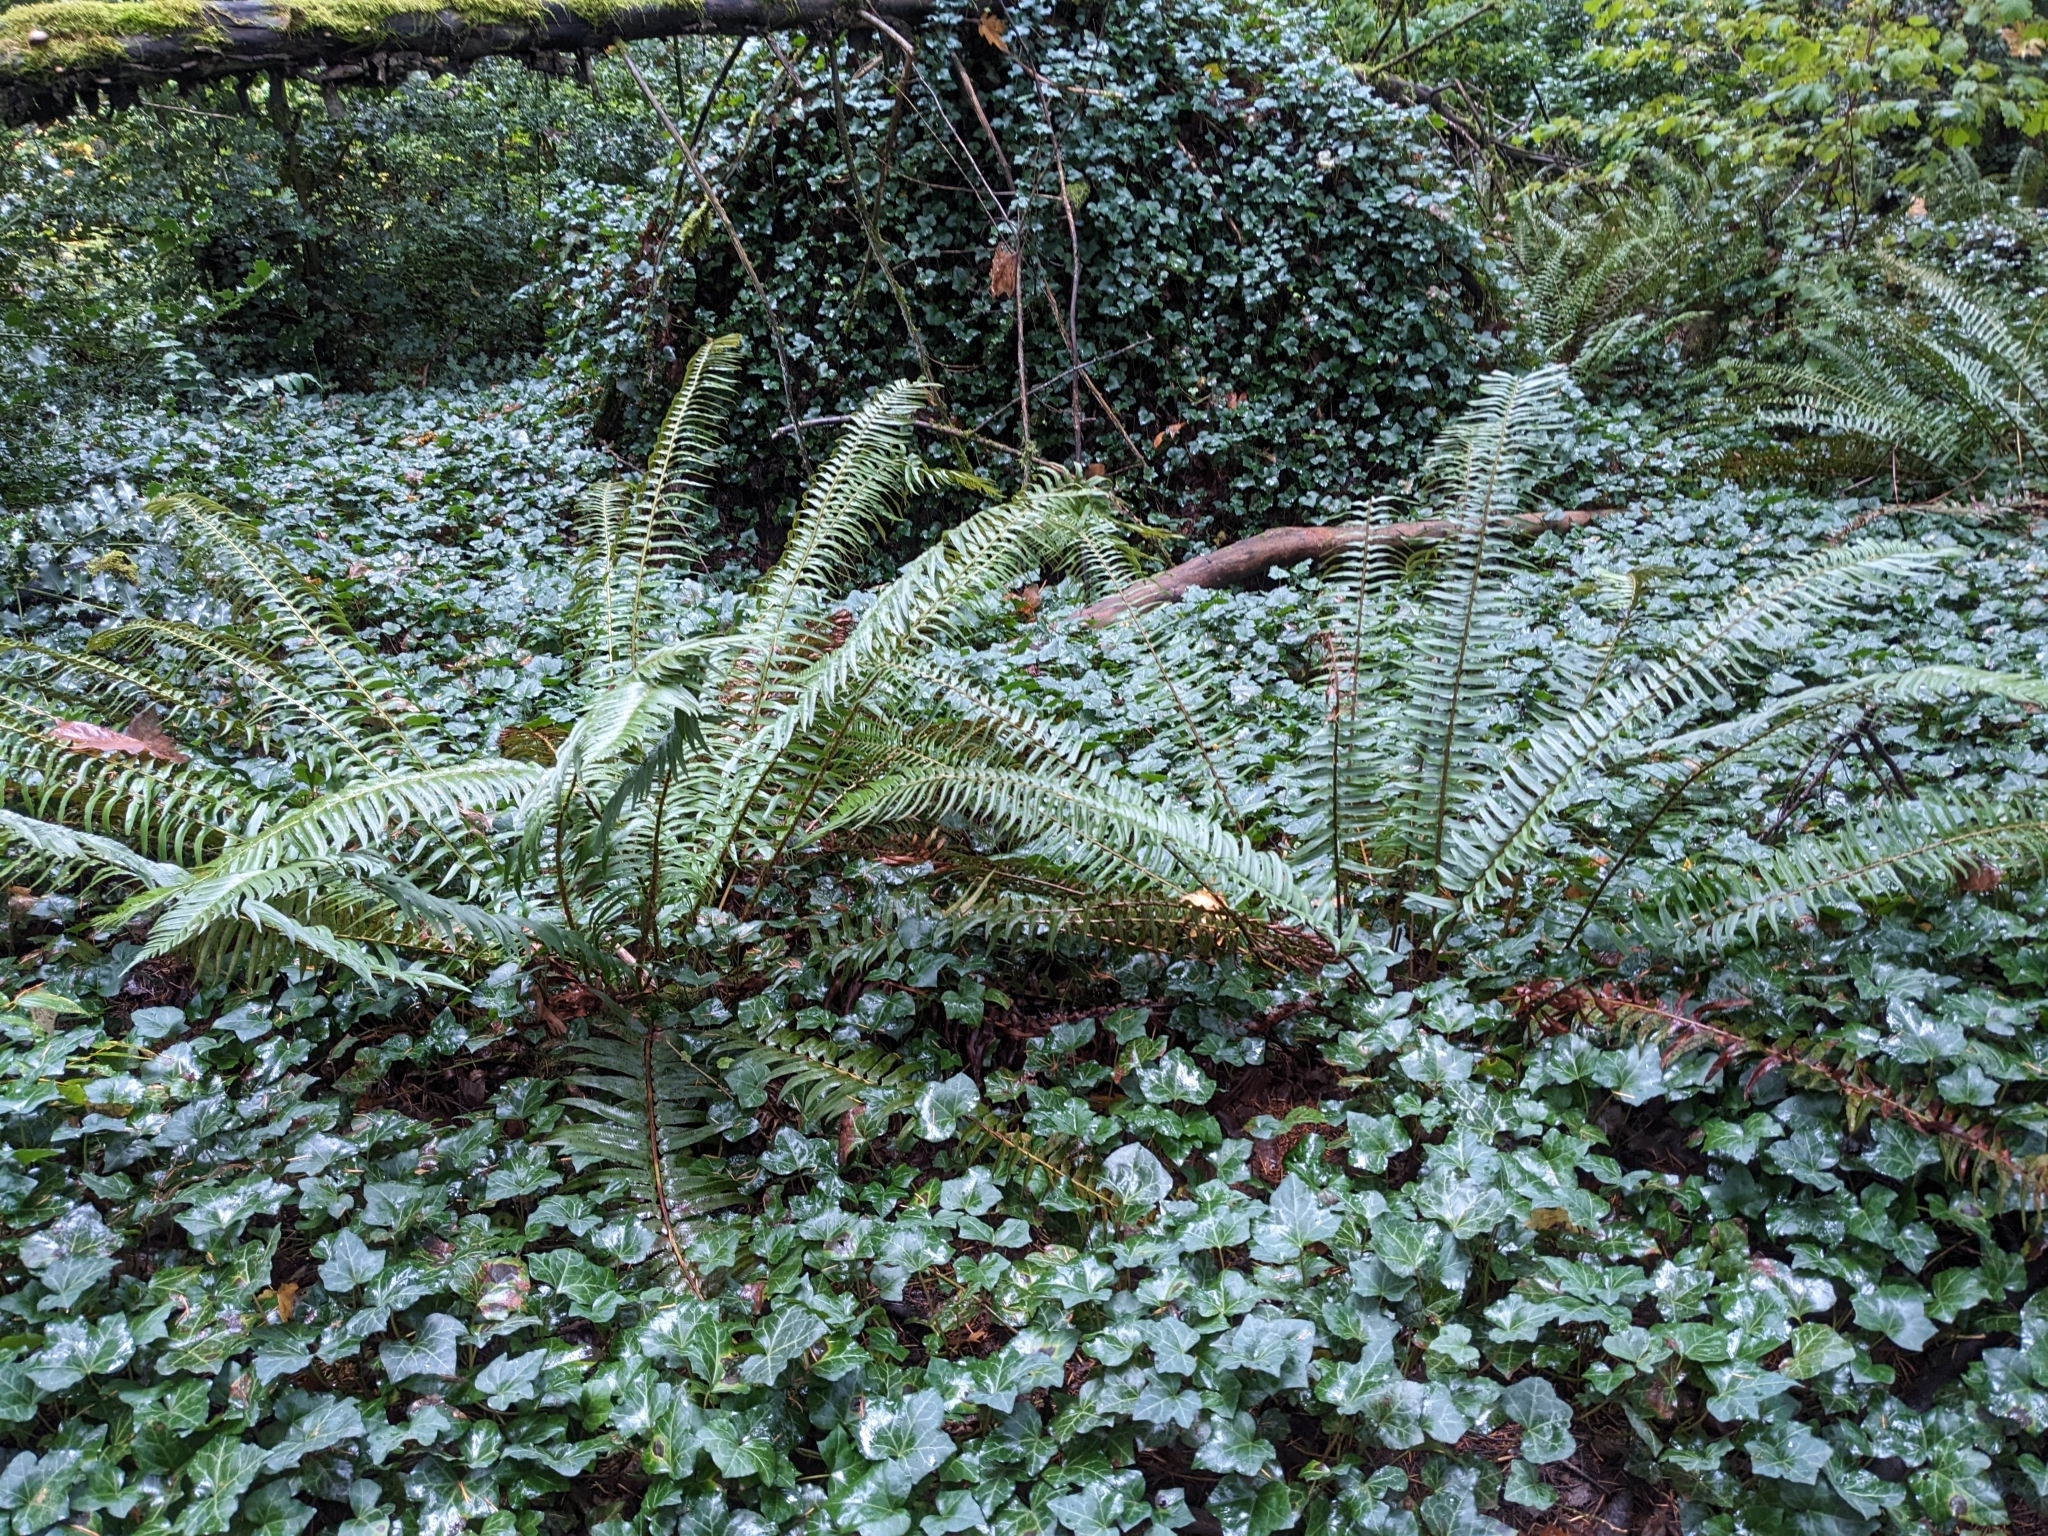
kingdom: Plantae
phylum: Tracheophyta
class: Polypodiopsida
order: Polypodiales
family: Dryopteridaceae
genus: Polystichum
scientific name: Polystichum munitum
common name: Western sword-fern
